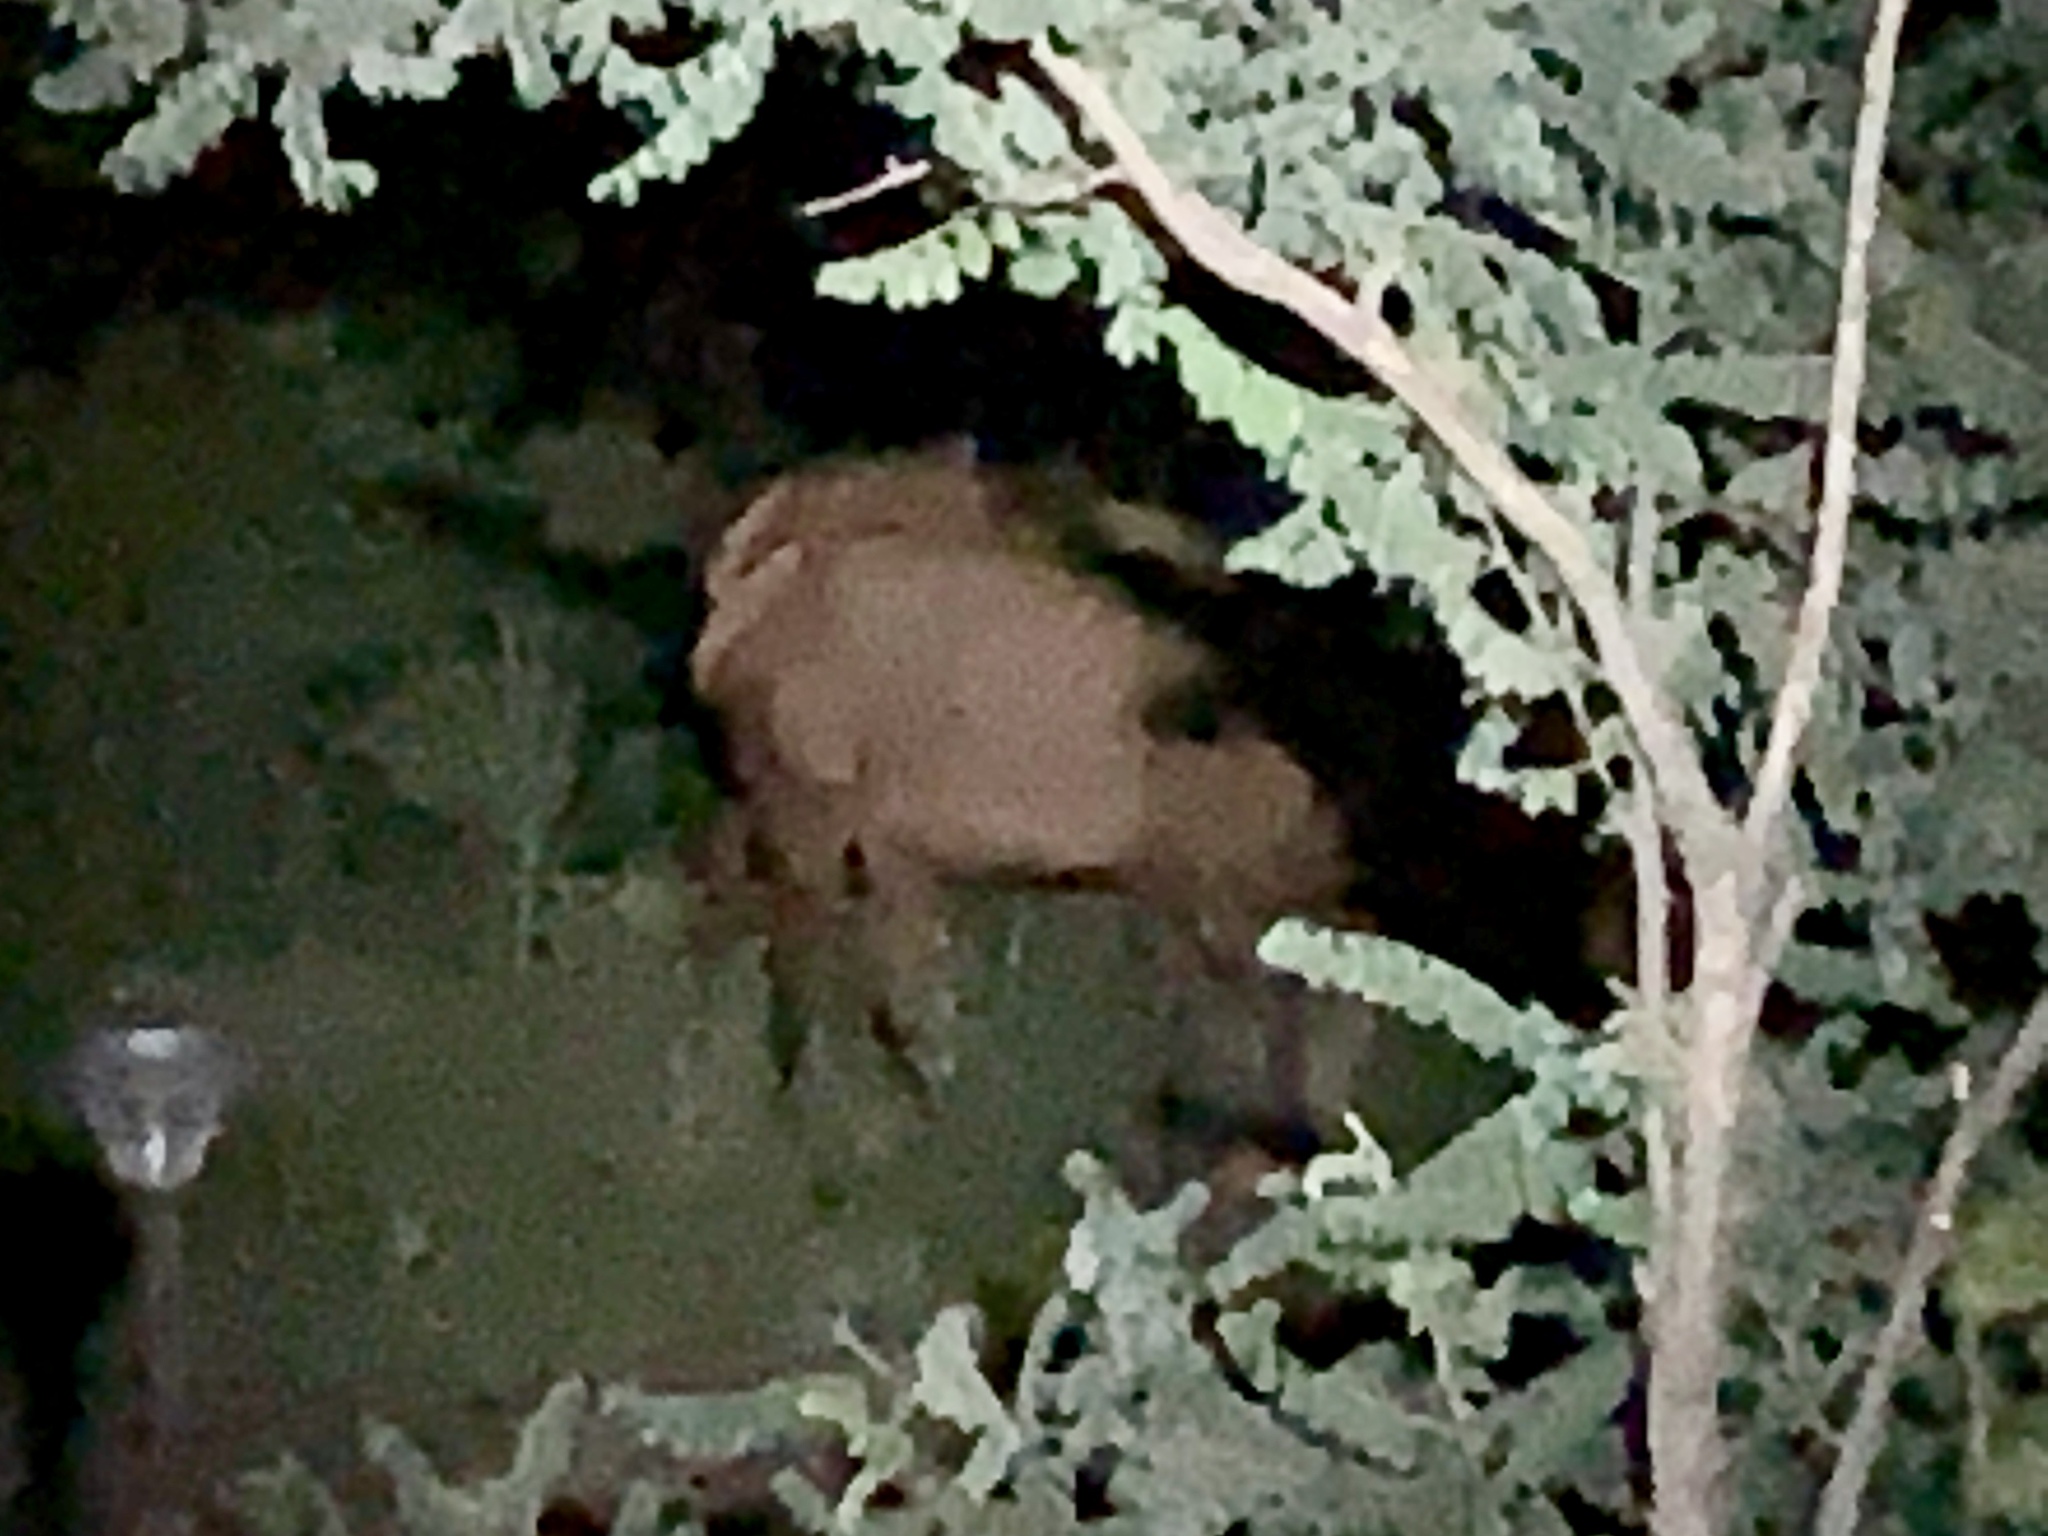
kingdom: Animalia
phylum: Chordata
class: Mammalia
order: Artiodactyla
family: Cervidae
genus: Cervus
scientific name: Cervus elaphus
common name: Red deer
